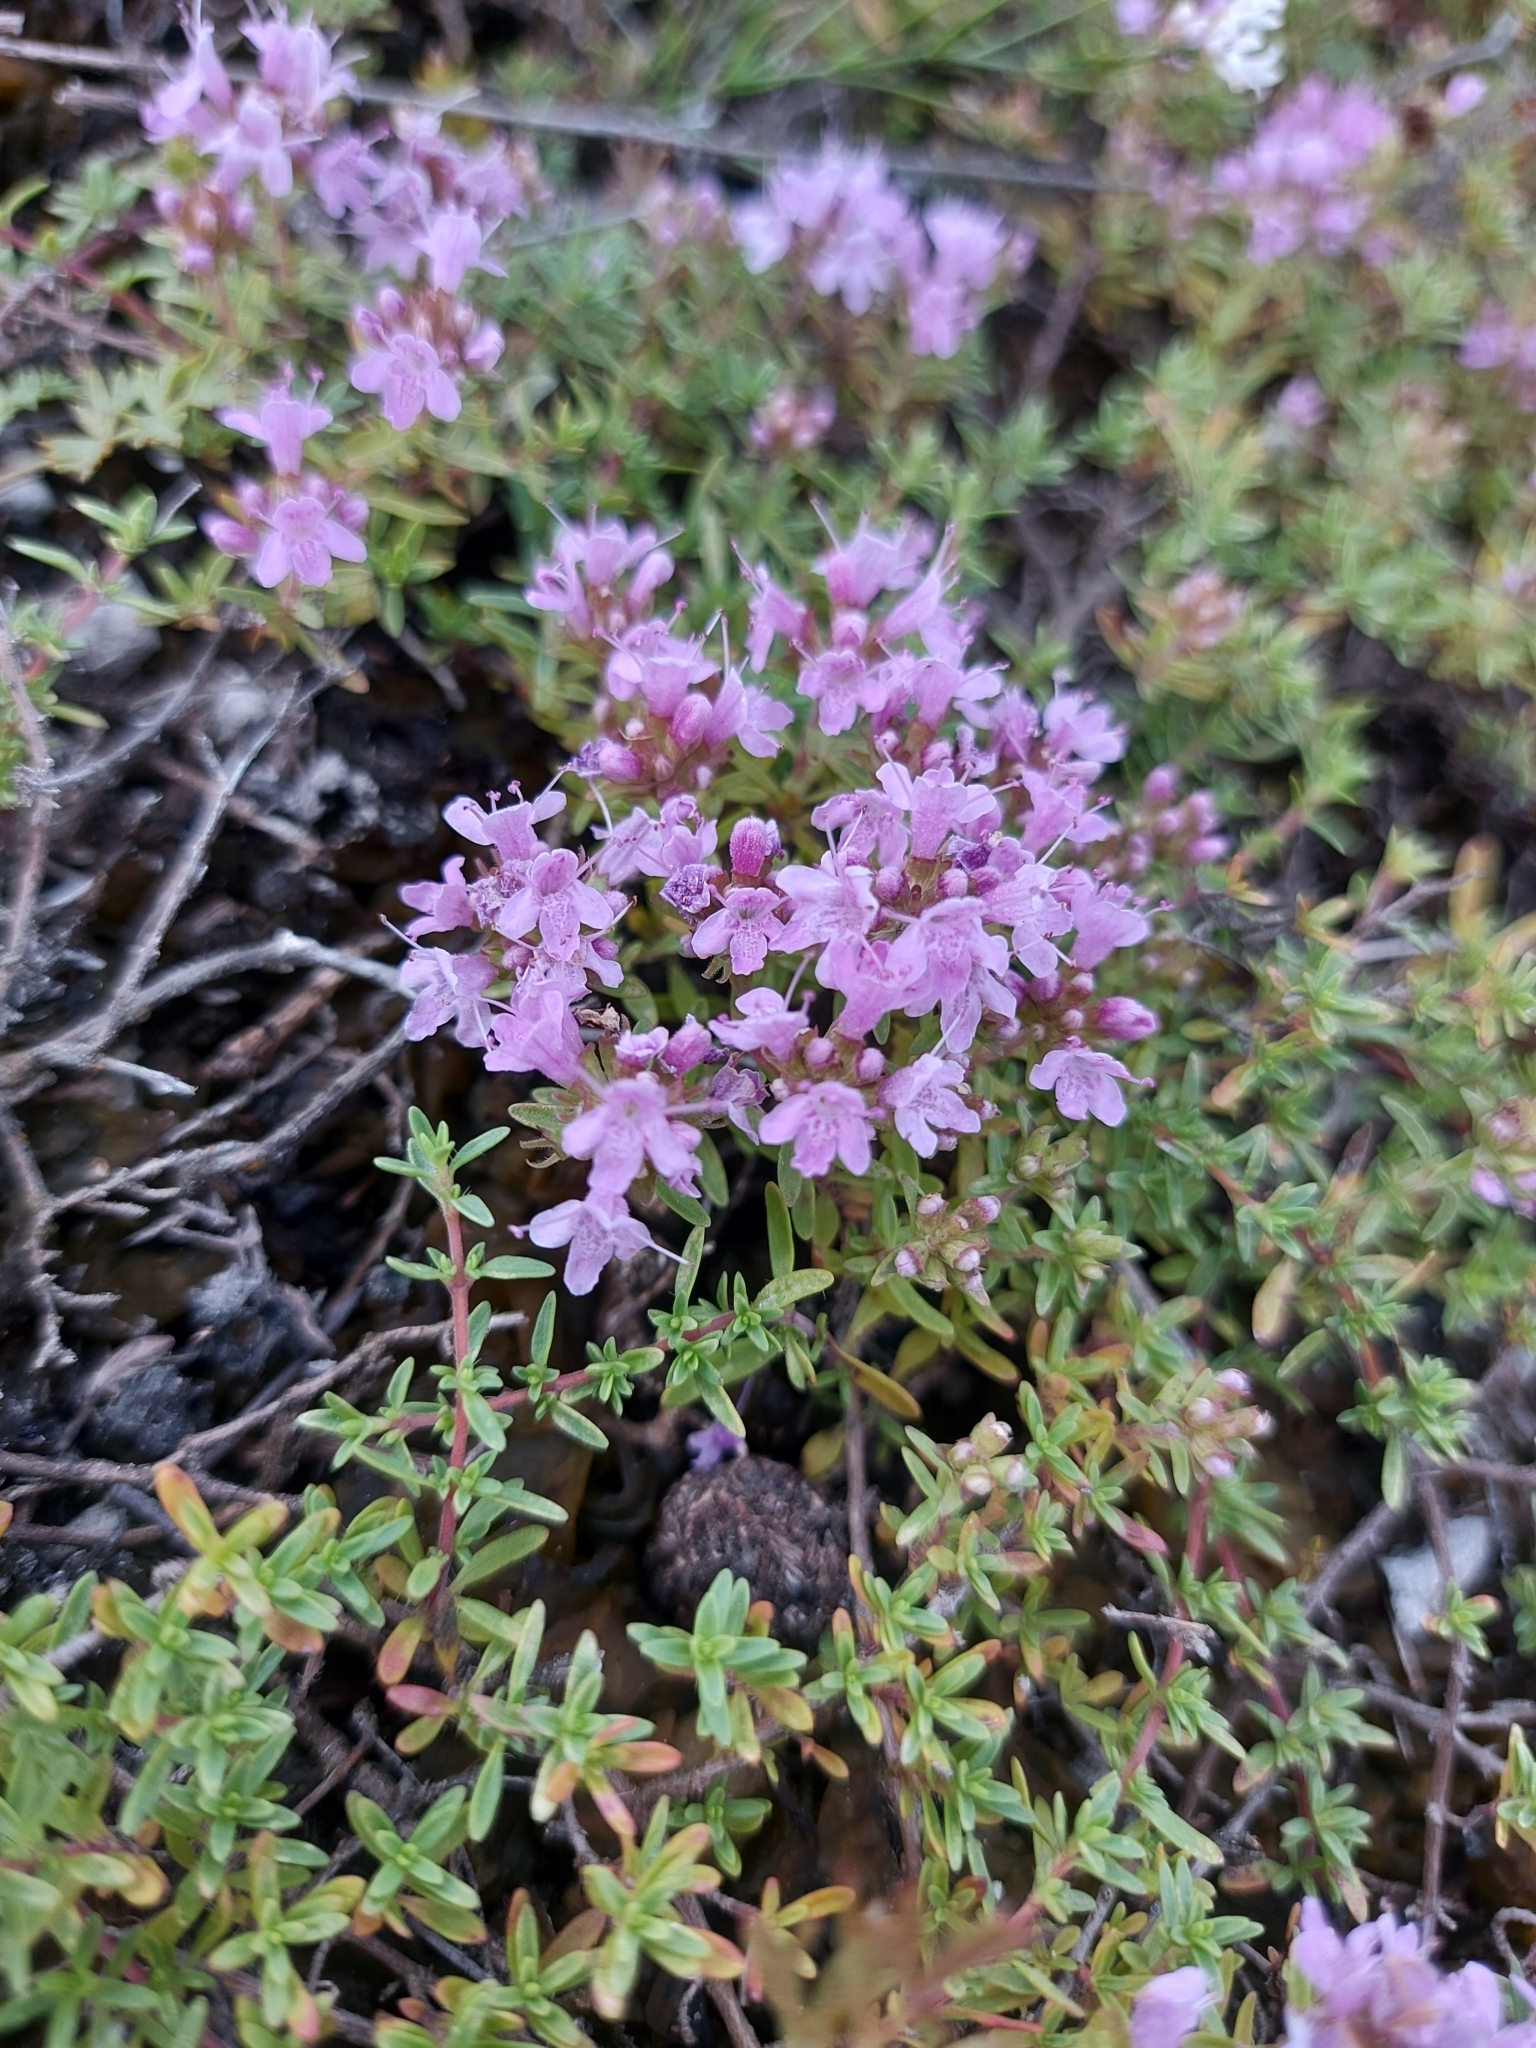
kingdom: Plantae
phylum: Tracheophyta
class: Magnoliopsida
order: Lamiales
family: Lamiaceae
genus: Thymus
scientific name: Thymus calcareus
